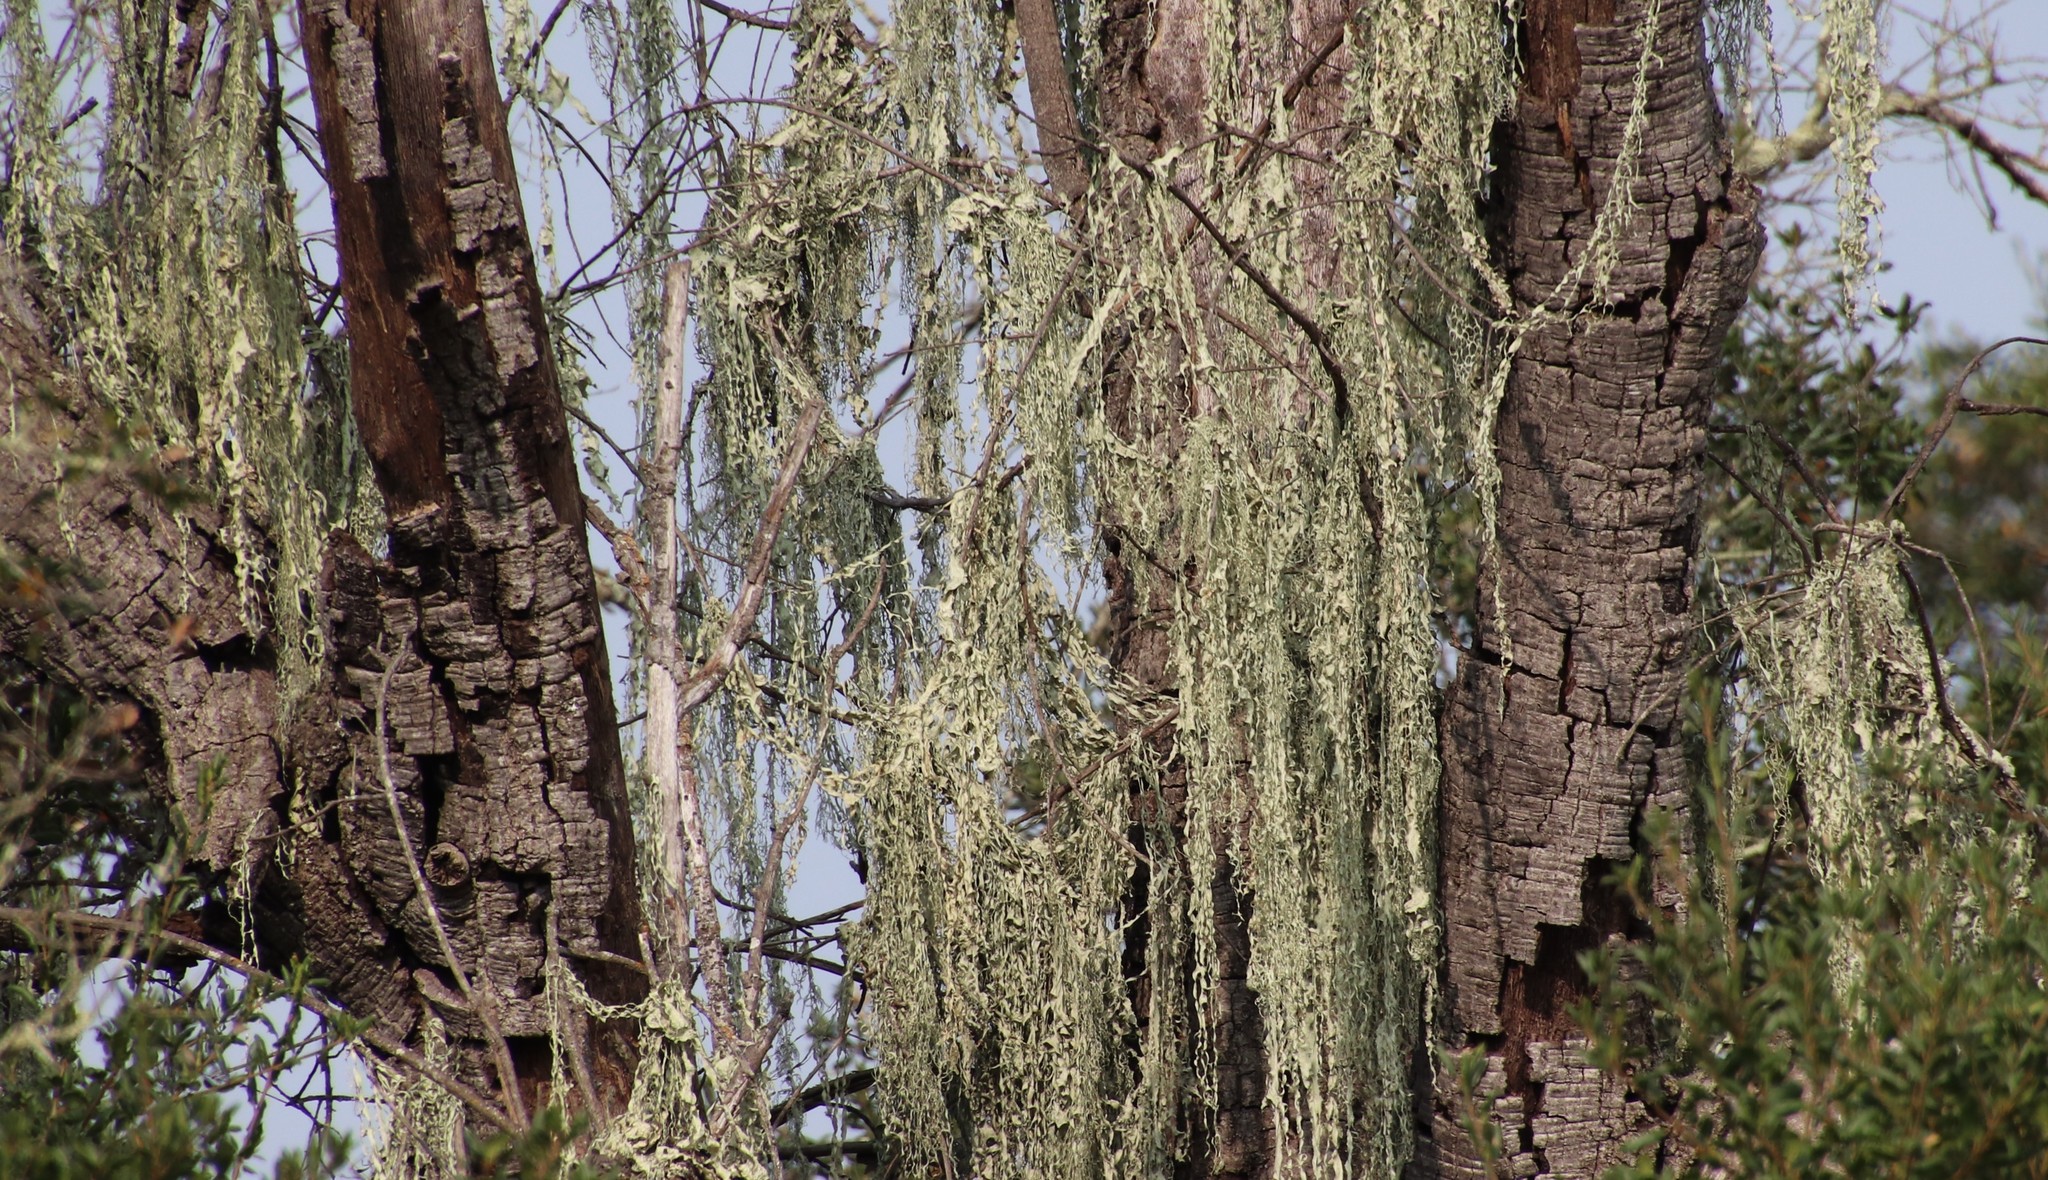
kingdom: Fungi
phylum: Ascomycota
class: Lecanoromycetes
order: Lecanorales
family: Ramalinaceae
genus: Ramalina
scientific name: Ramalina menziesii
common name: Lace lichen
